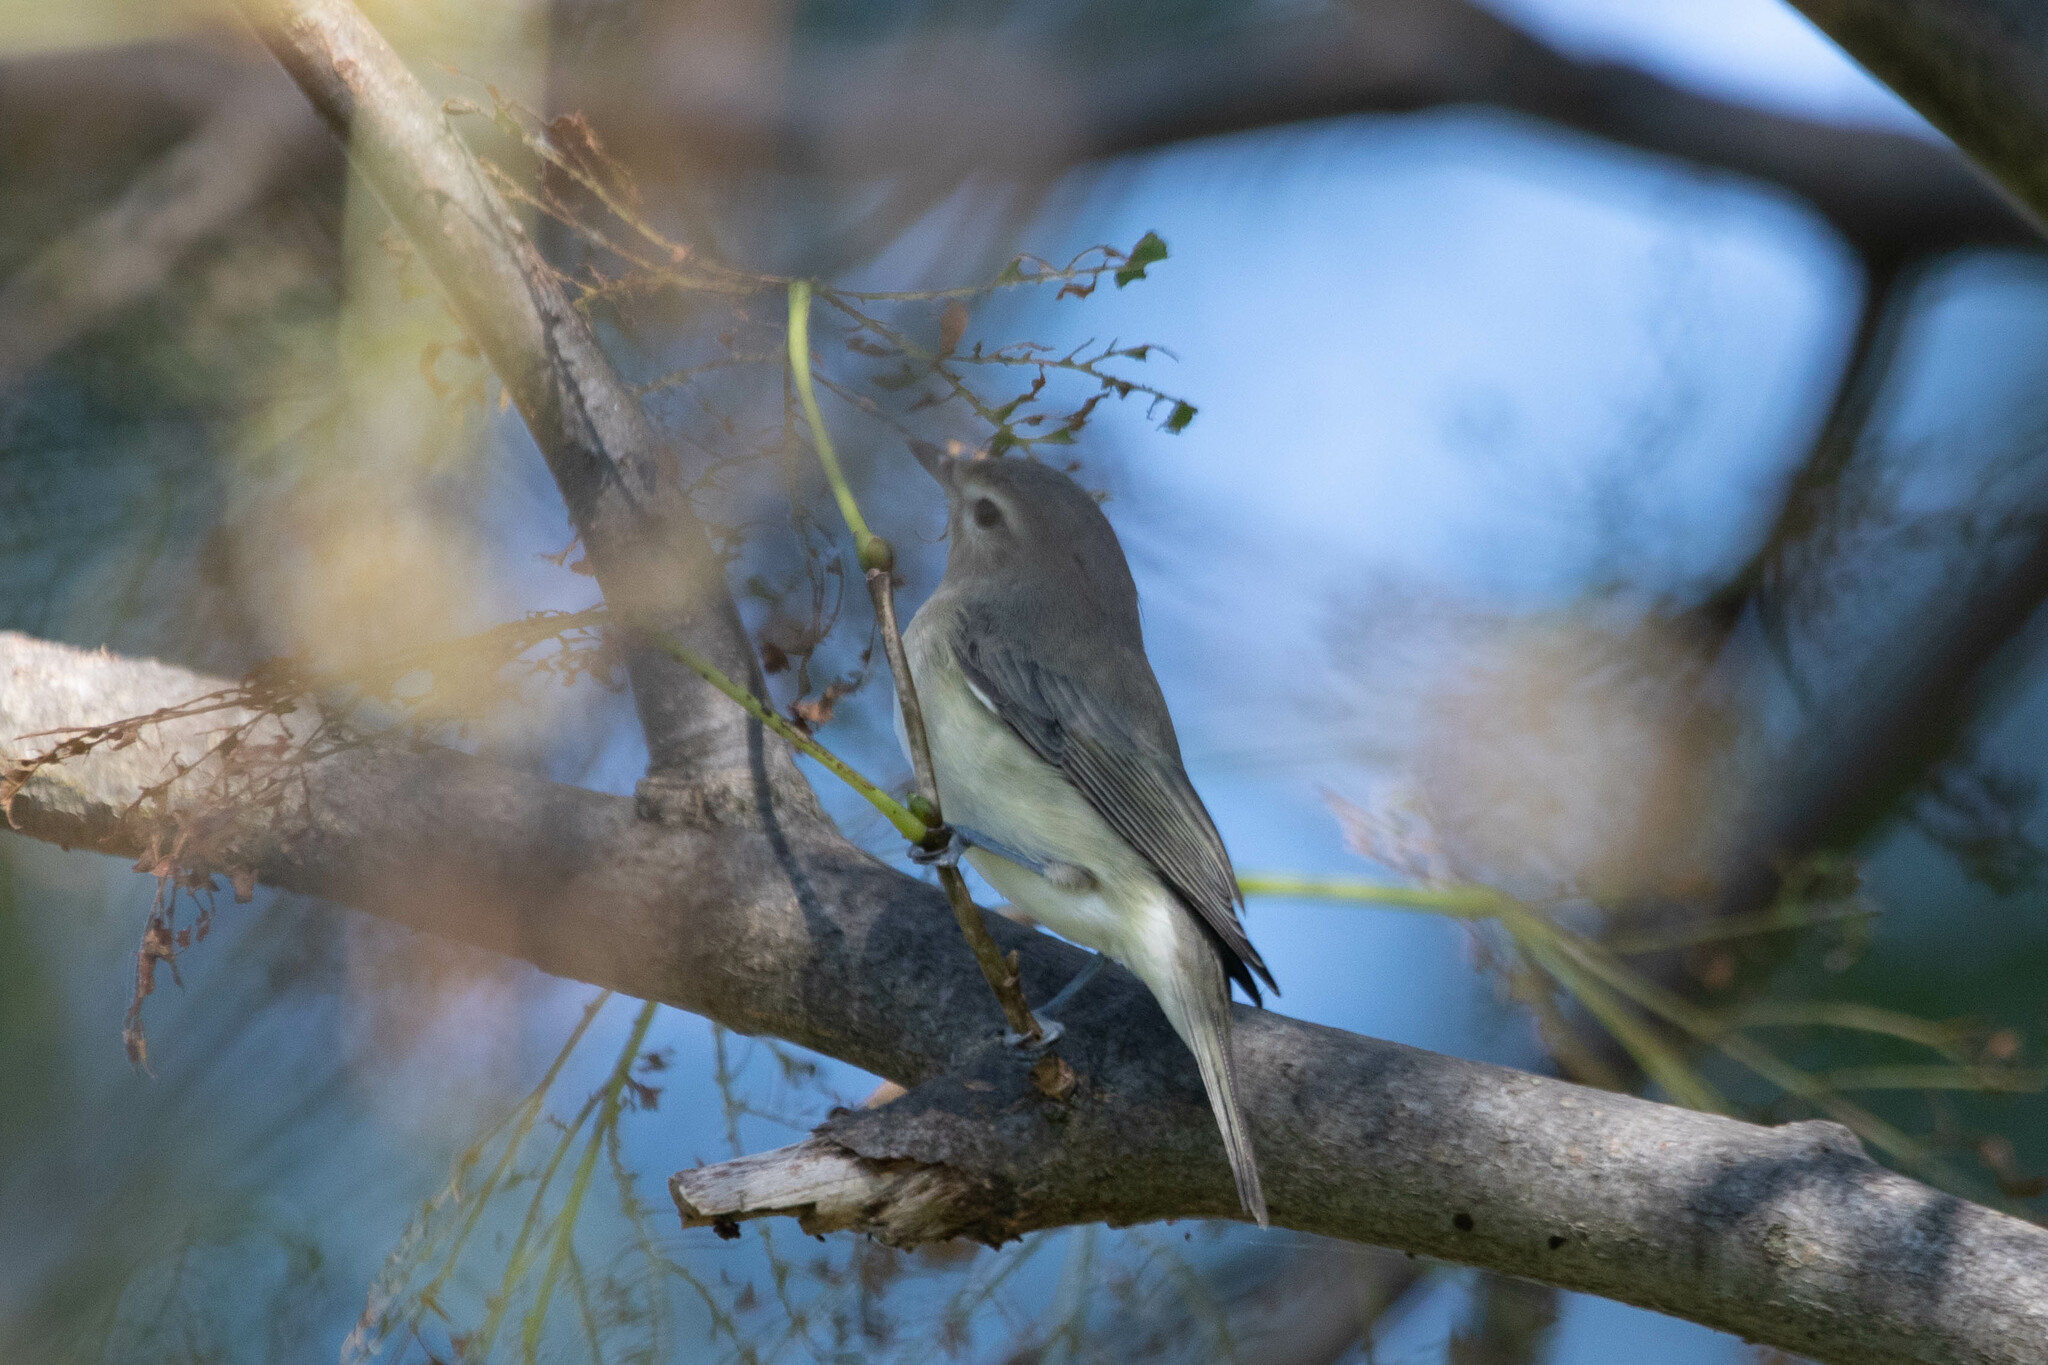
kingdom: Animalia
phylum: Chordata
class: Aves
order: Passeriformes
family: Vireonidae
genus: Vireo
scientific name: Vireo gilvus
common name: Warbling vireo
